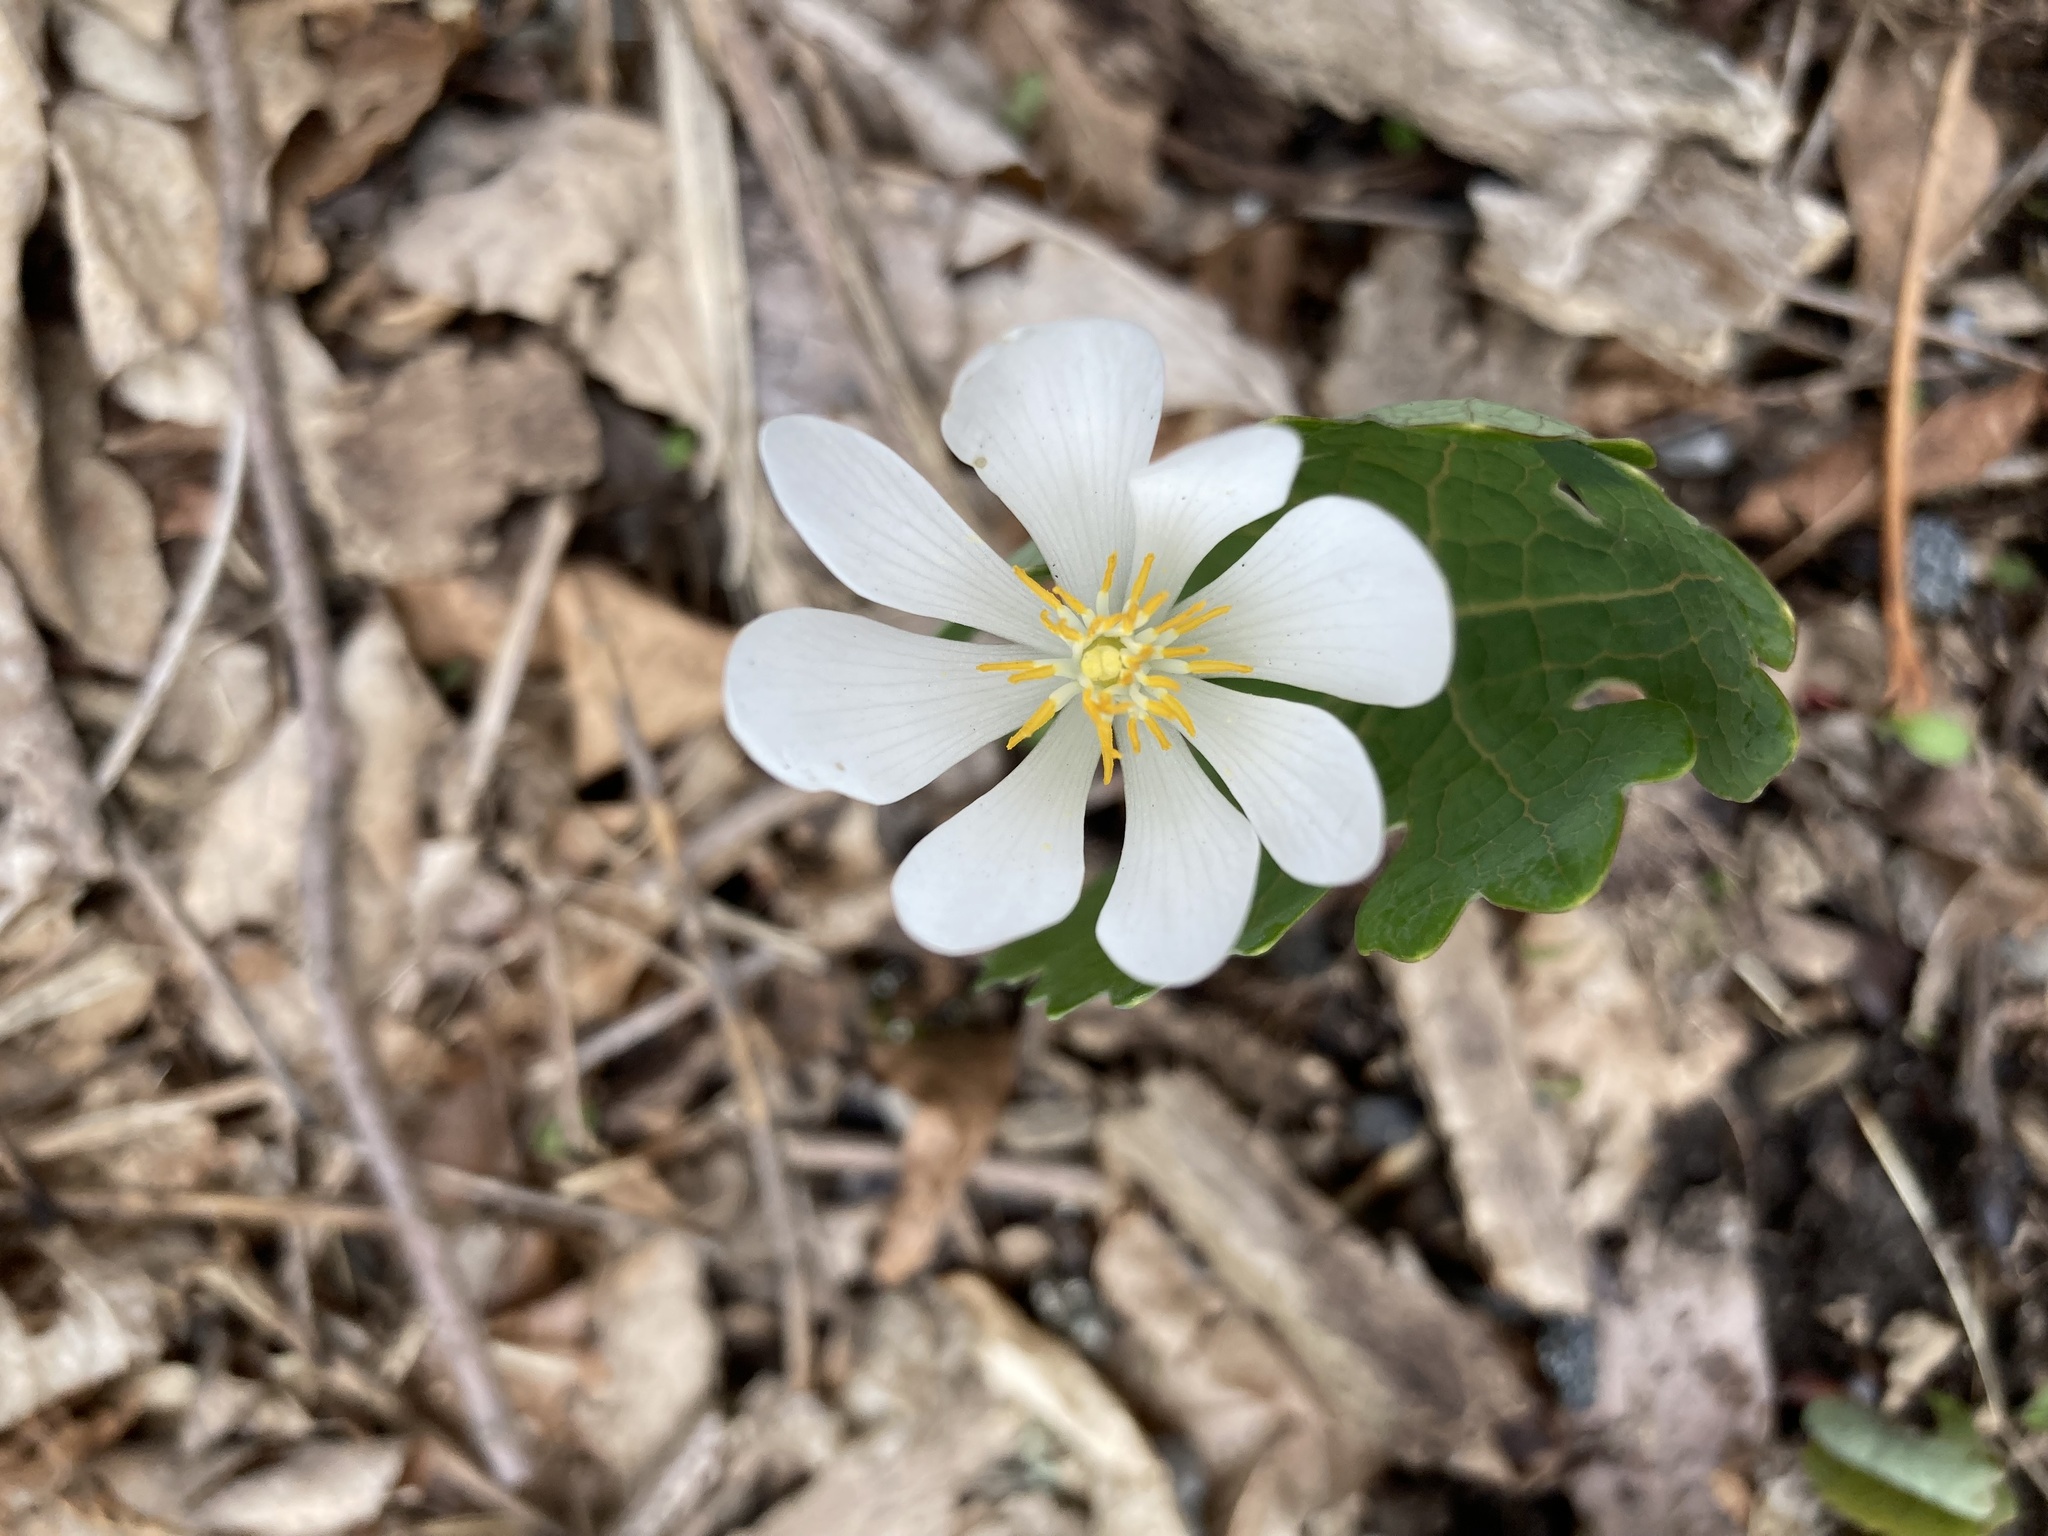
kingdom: Plantae
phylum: Tracheophyta
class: Magnoliopsida
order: Ranunculales
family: Papaveraceae
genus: Sanguinaria
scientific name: Sanguinaria canadensis
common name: Bloodroot
